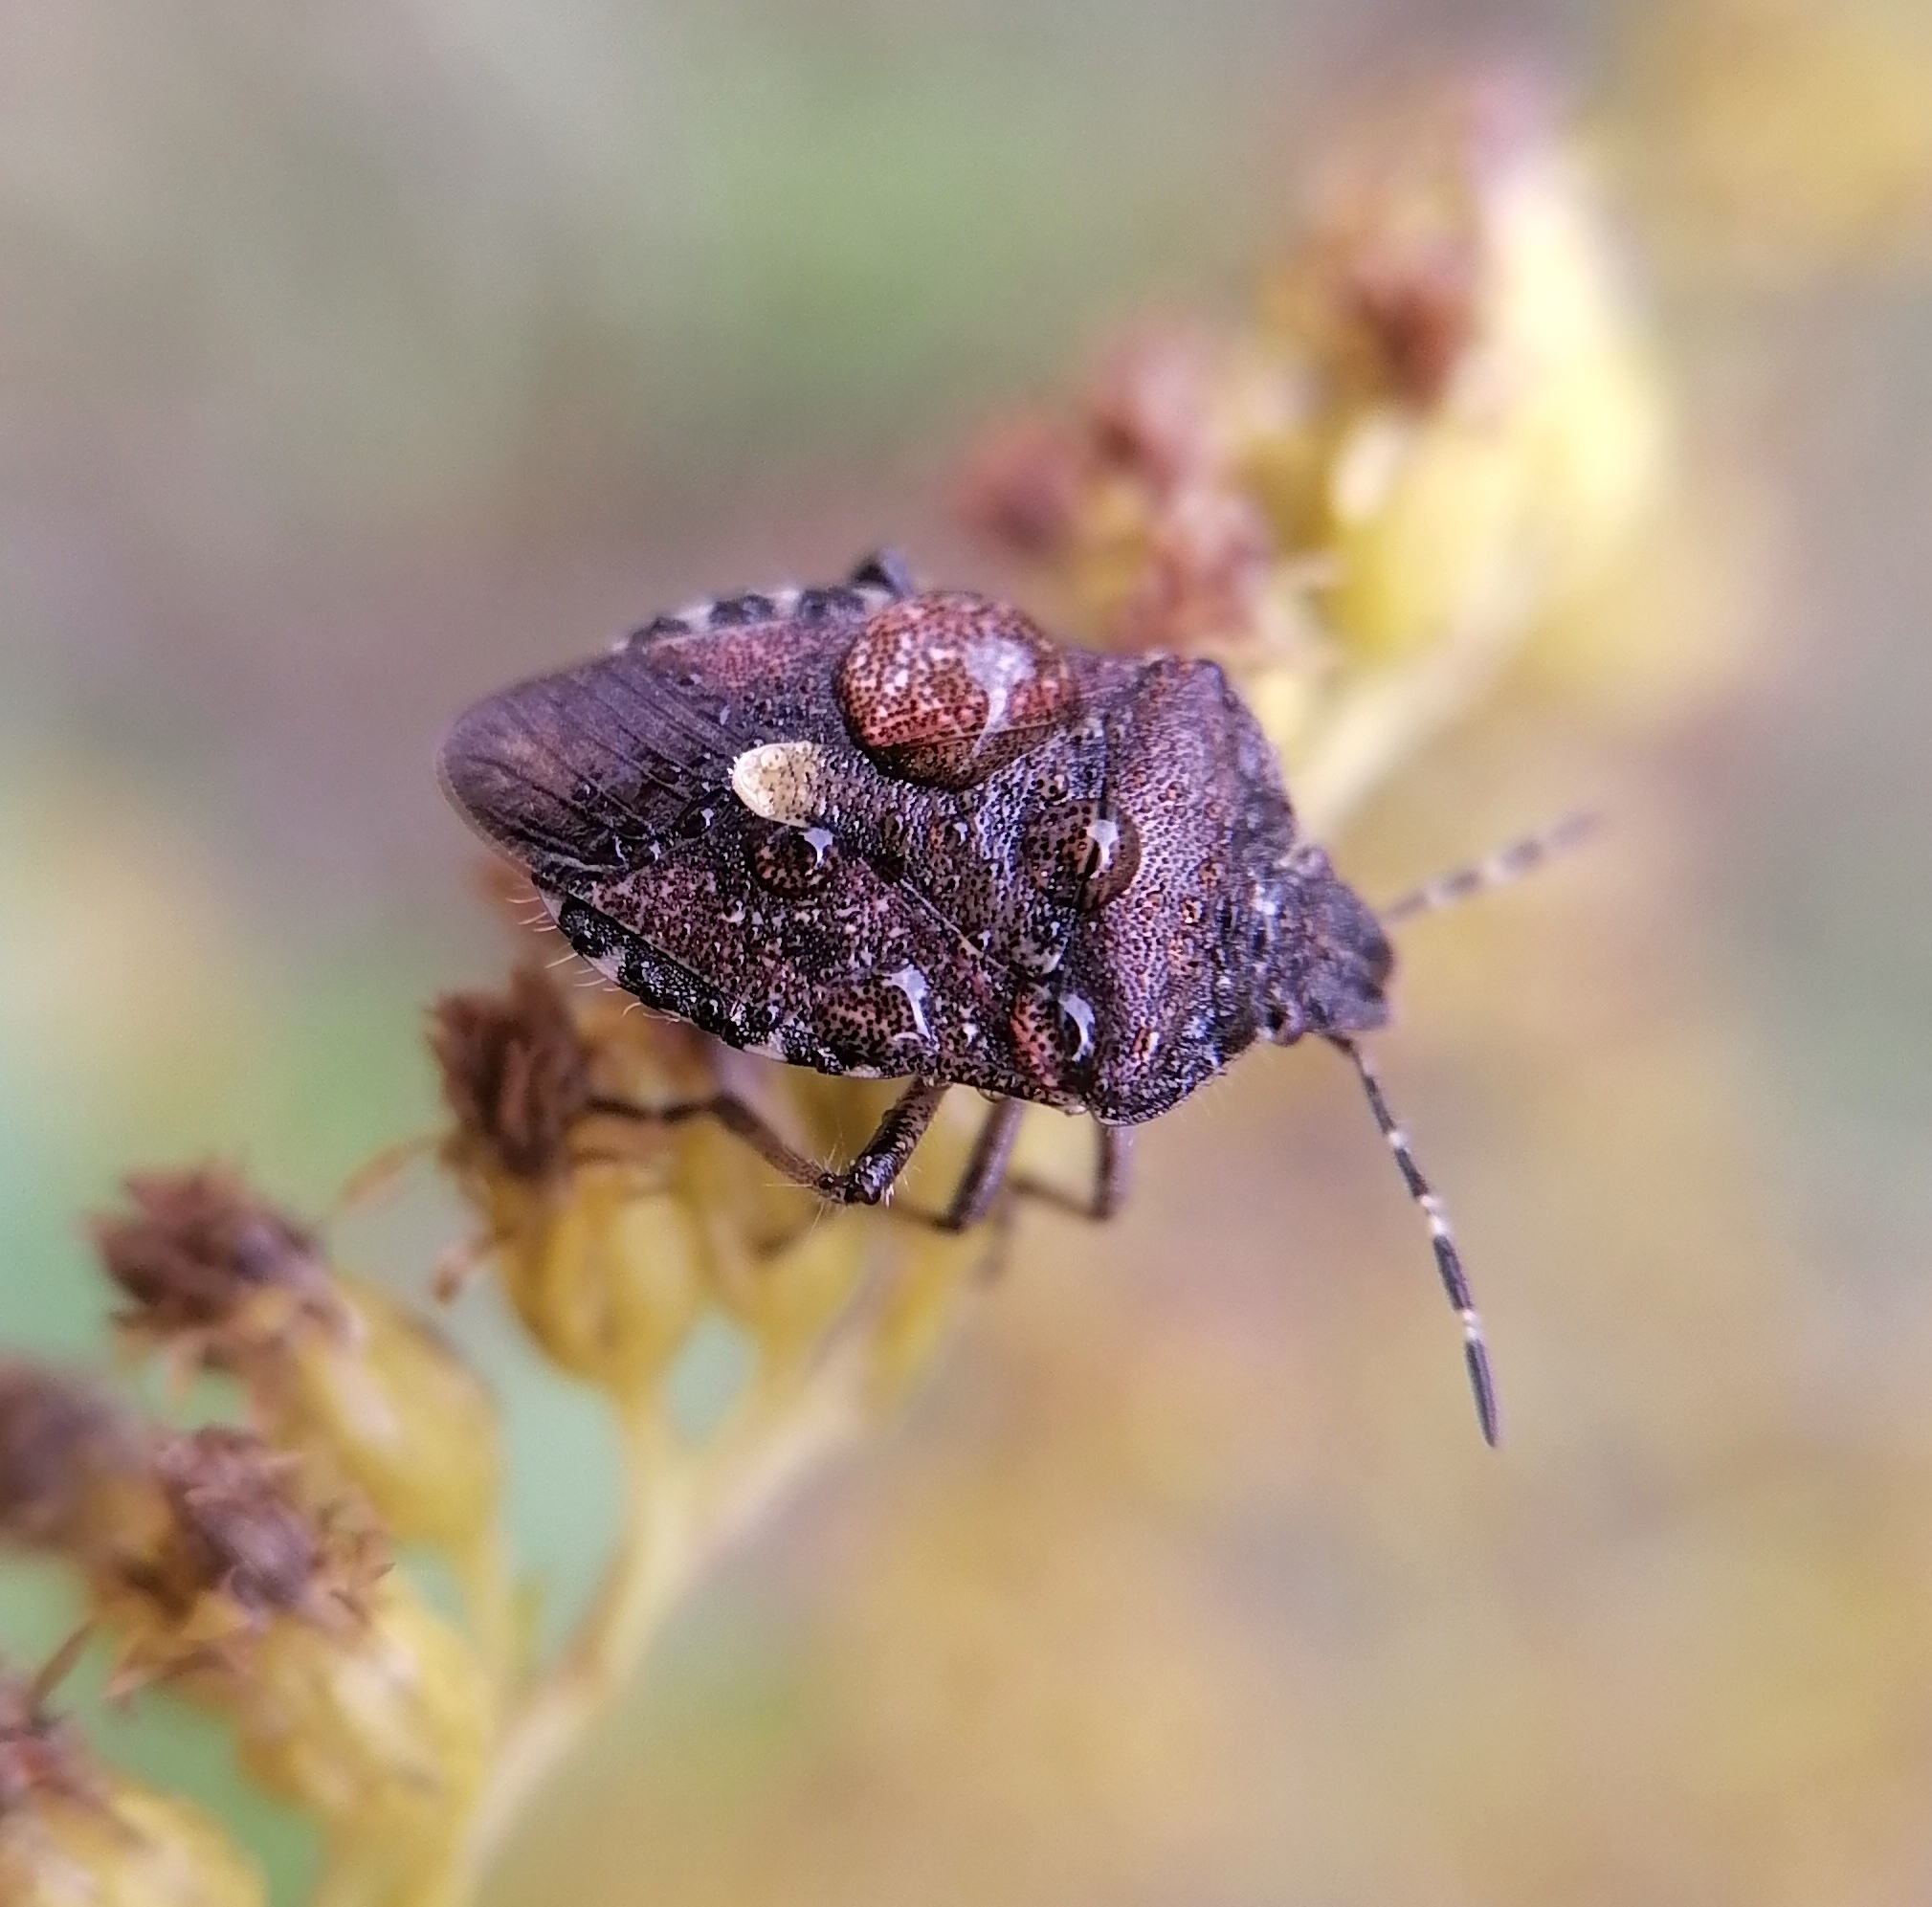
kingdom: Animalia
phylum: Arthropoda
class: Insecta
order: Hemiptera
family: Pentatomidae
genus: Dolycoris
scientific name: Dolycoris baccarum
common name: Sloe bug
